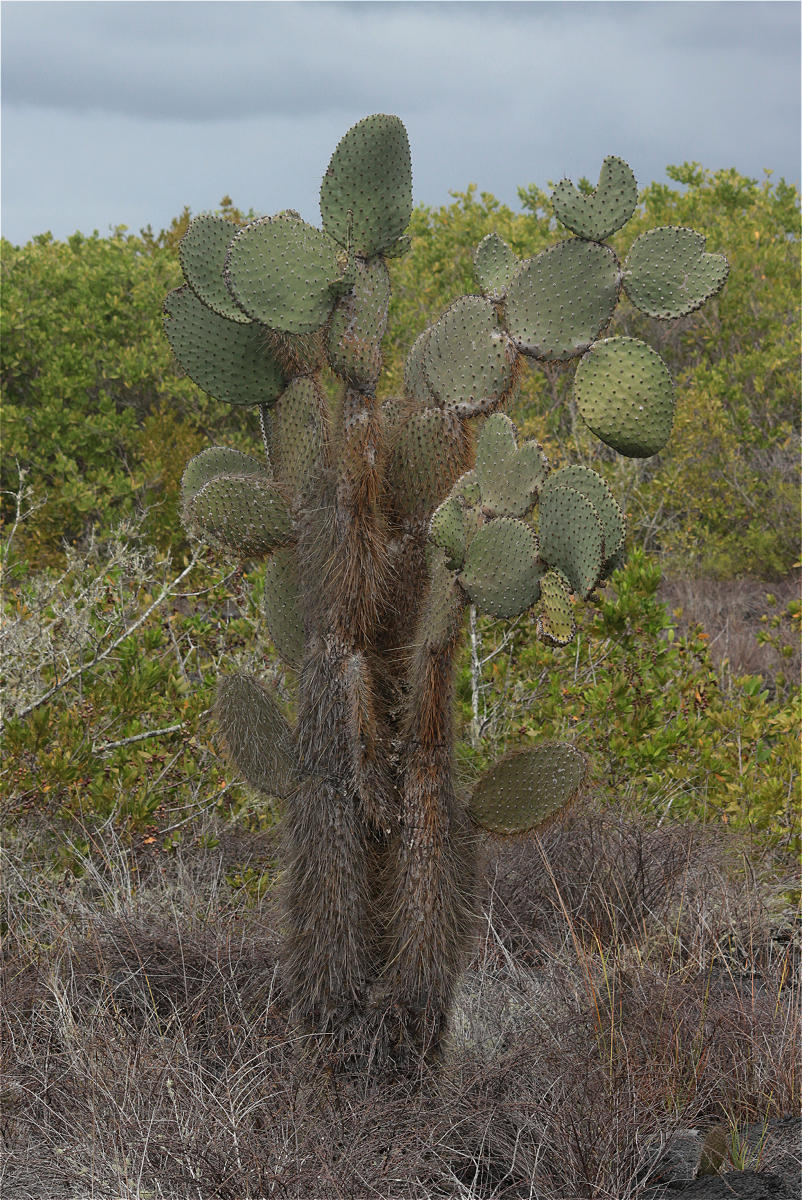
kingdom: Plantae
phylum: Tracheophyta
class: Magnoliopsida
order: Caryophyllales
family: Cactaceae
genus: Opuntia
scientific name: Opuntia galapageia
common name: Galápagos prickly pear
